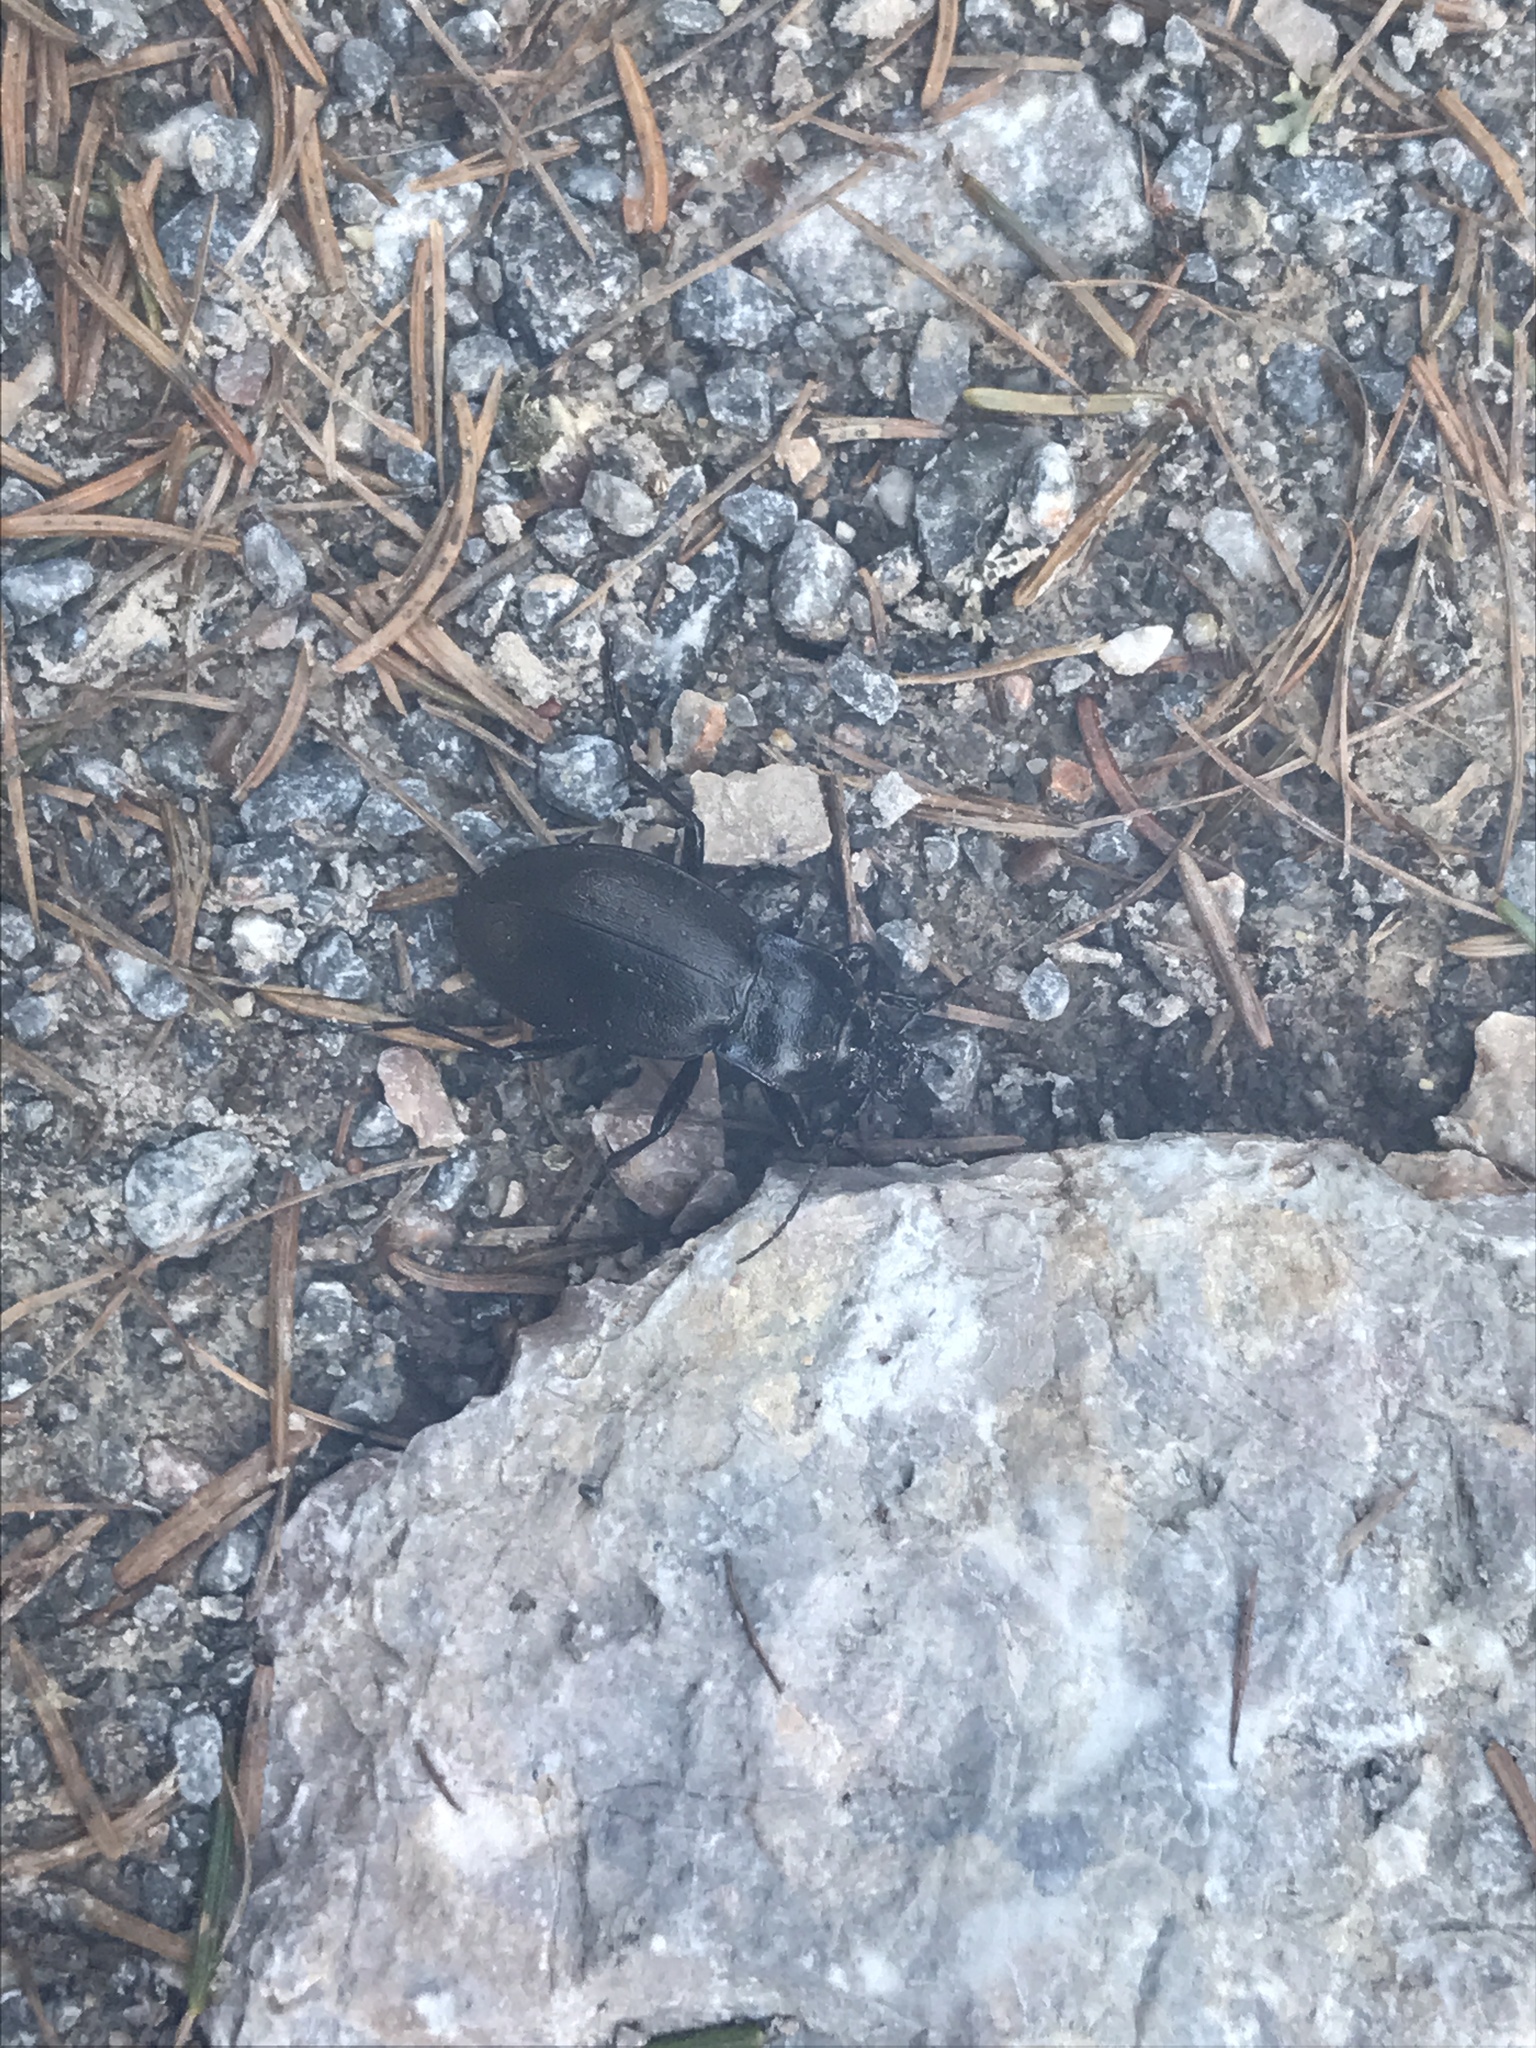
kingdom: Animalia
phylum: Arthropoda
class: Insecta
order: Coleoptera
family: Carabidae
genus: Carabus
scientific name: Carabus nemoralis
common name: European ground beetle
